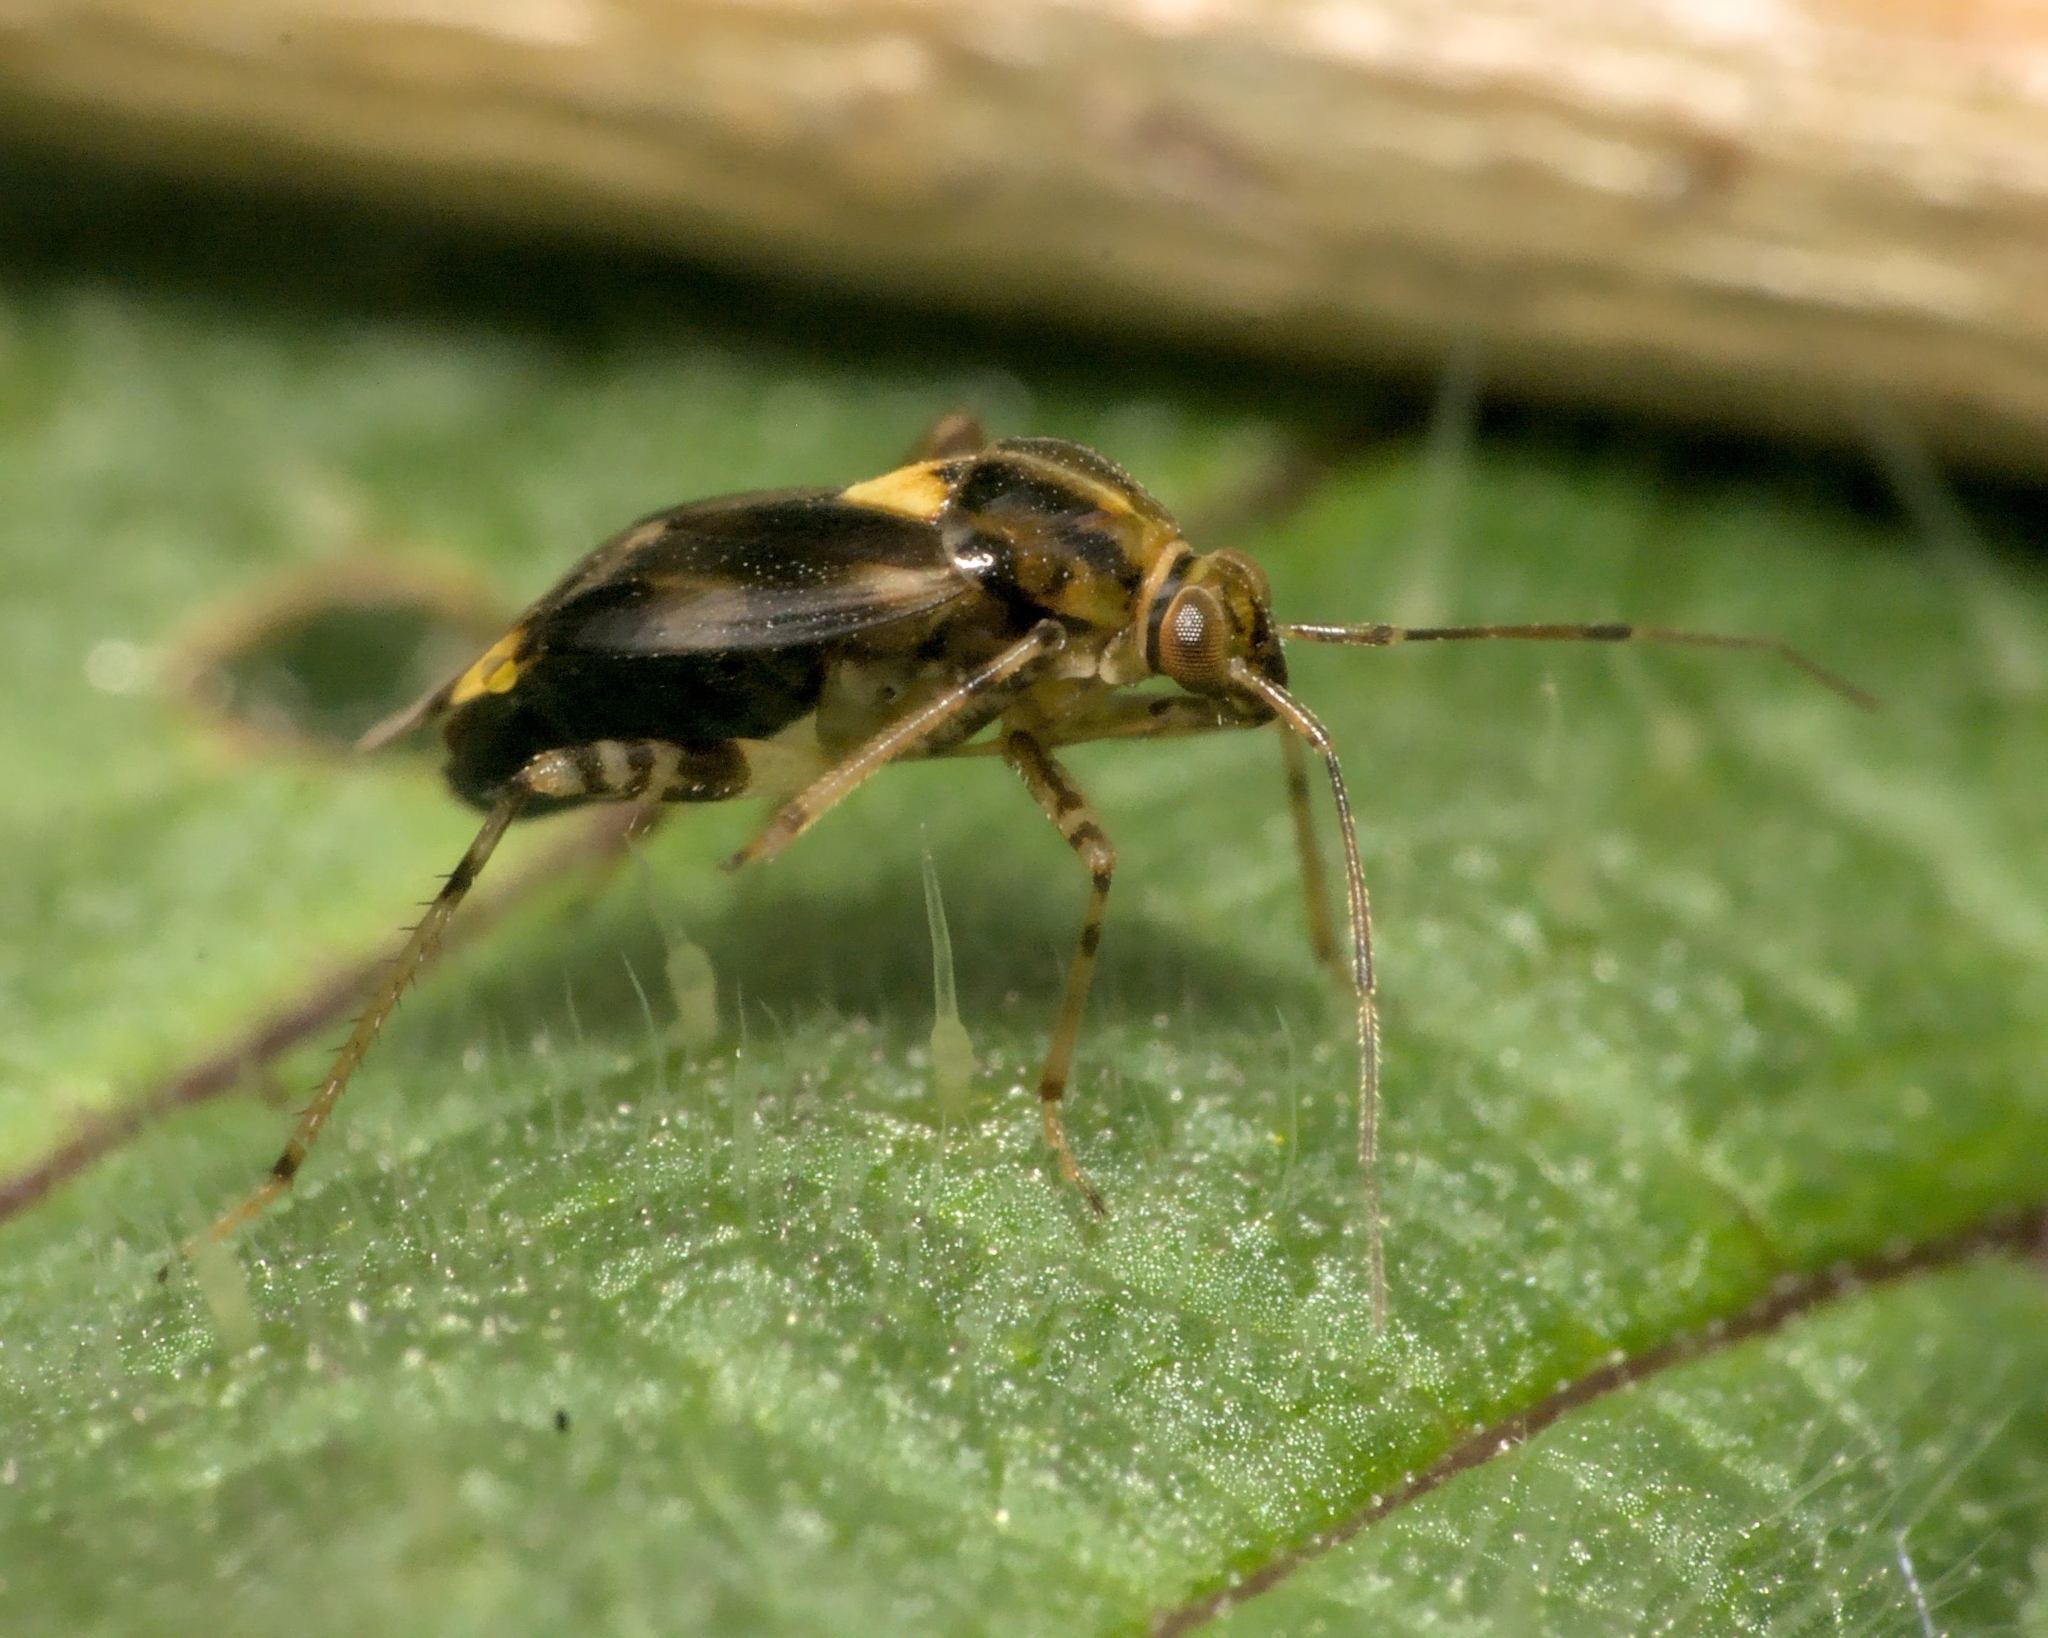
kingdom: Animalia
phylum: Arthropoda
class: Insecta
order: Hemiptera
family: Miridae
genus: Liocoris
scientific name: Liocoris tripustulatus
